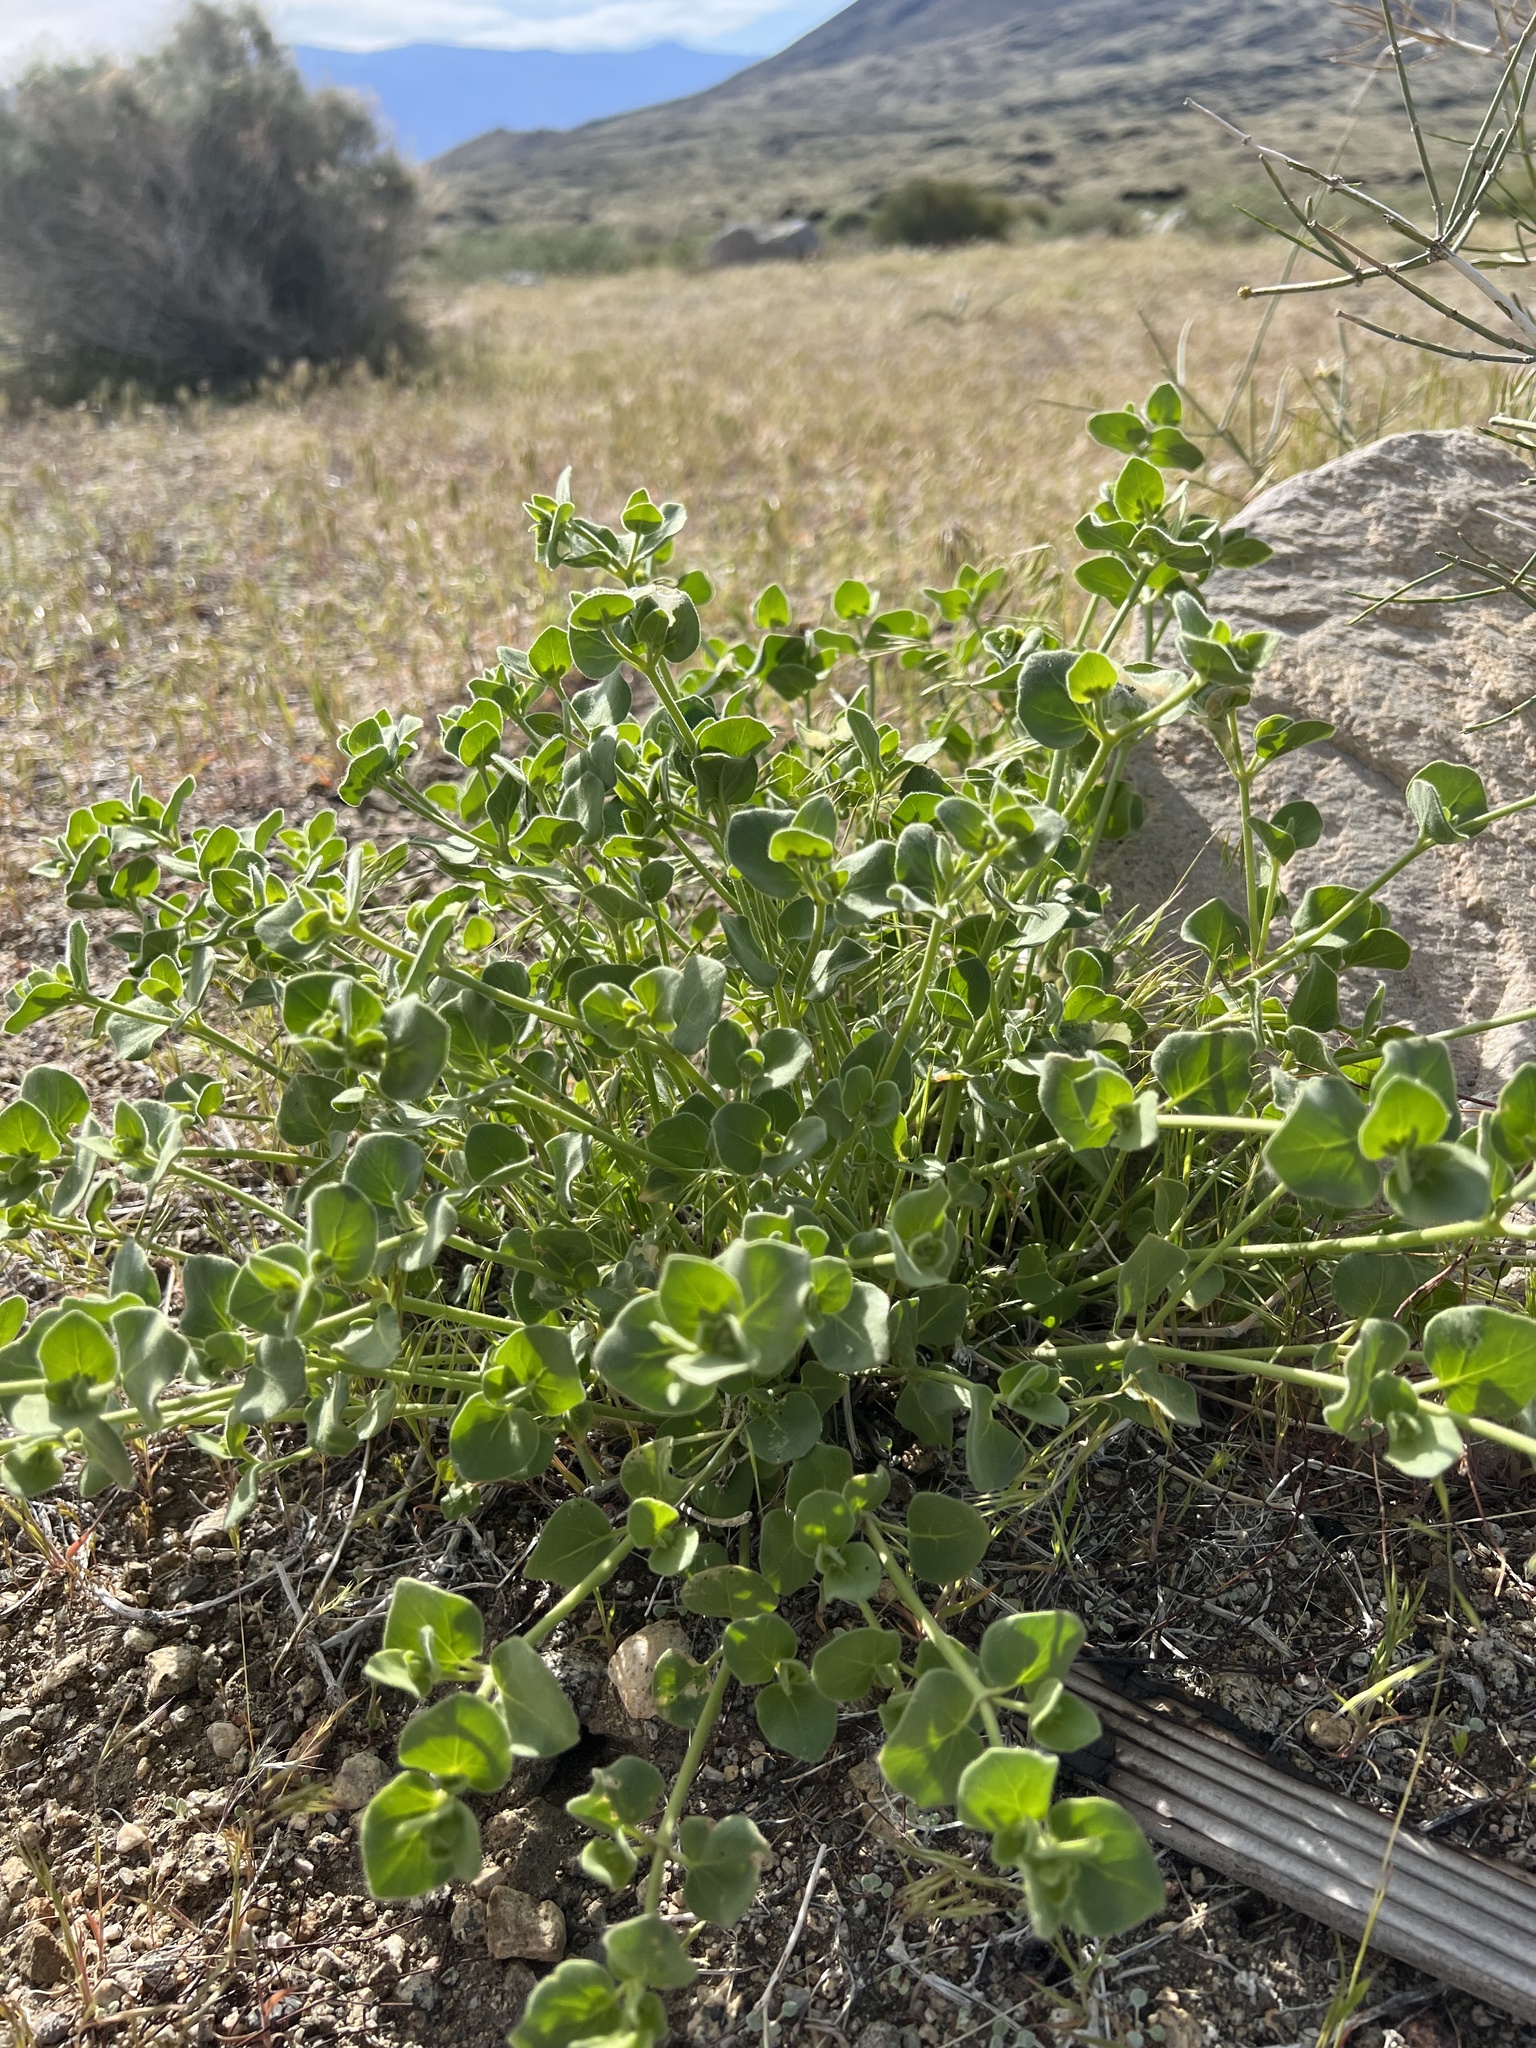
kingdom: Plantae
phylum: Tracheophyta
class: Magnoliopsida
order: Caryophyllales
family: Nyctaginaceae
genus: Mirabilis
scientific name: Mirabilis laevis
